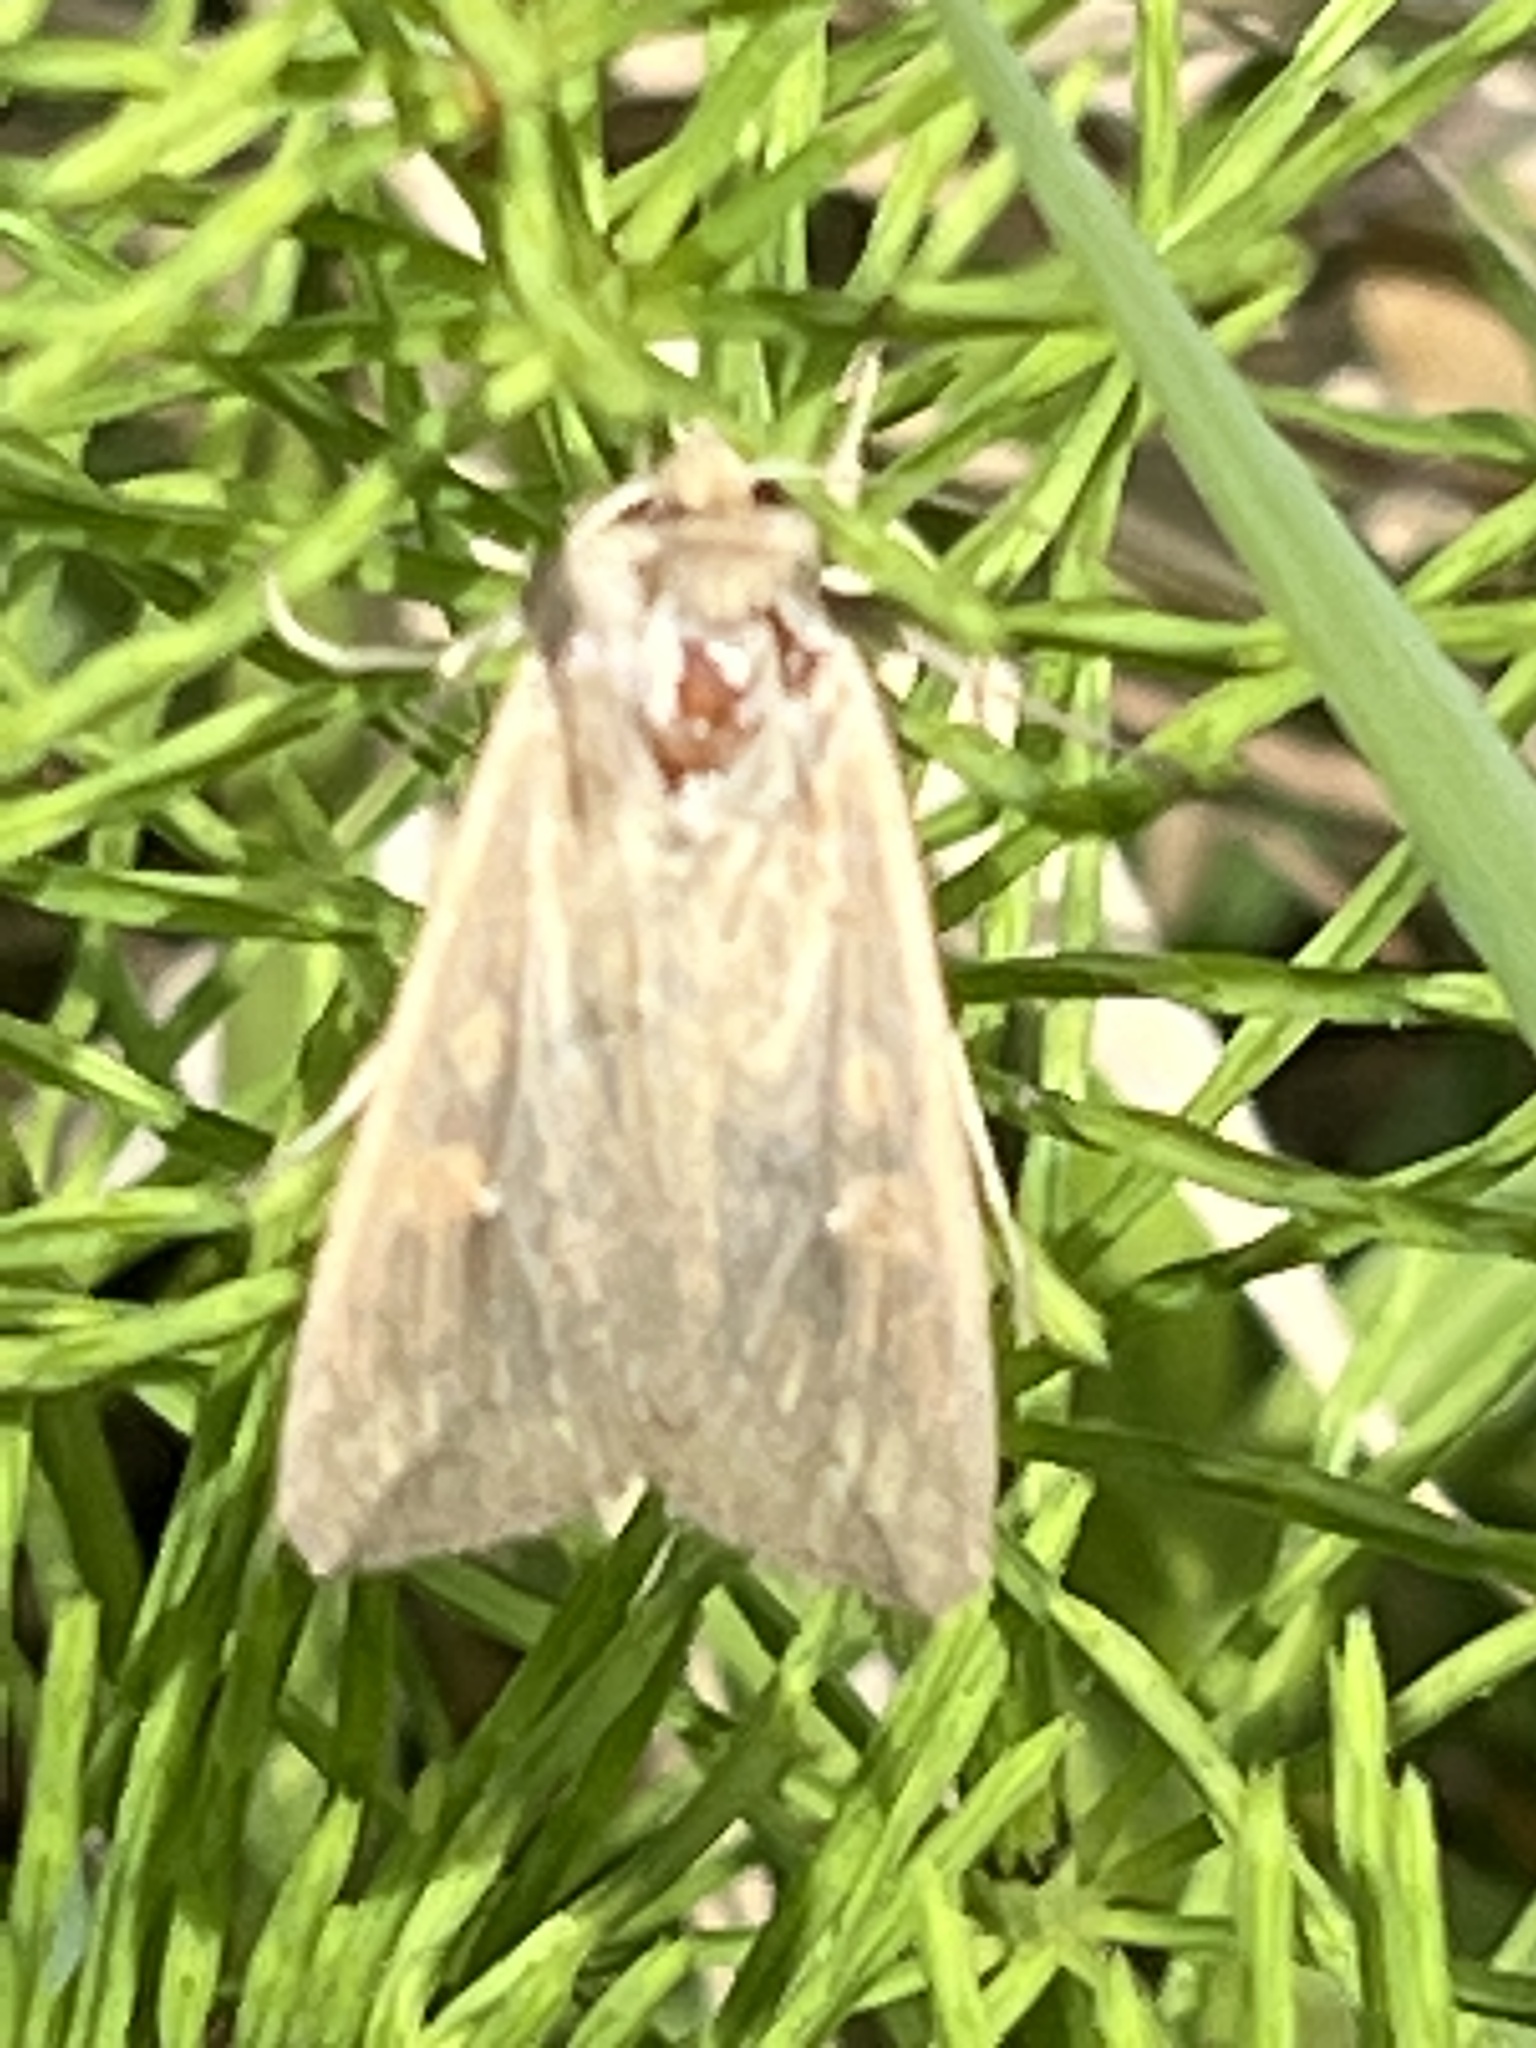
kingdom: Animalia
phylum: Arthropoda
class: Insecta
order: Lepidoptera
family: Noctuidae
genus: Mythimna
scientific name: Mythimna unipuncta
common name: White-speck
